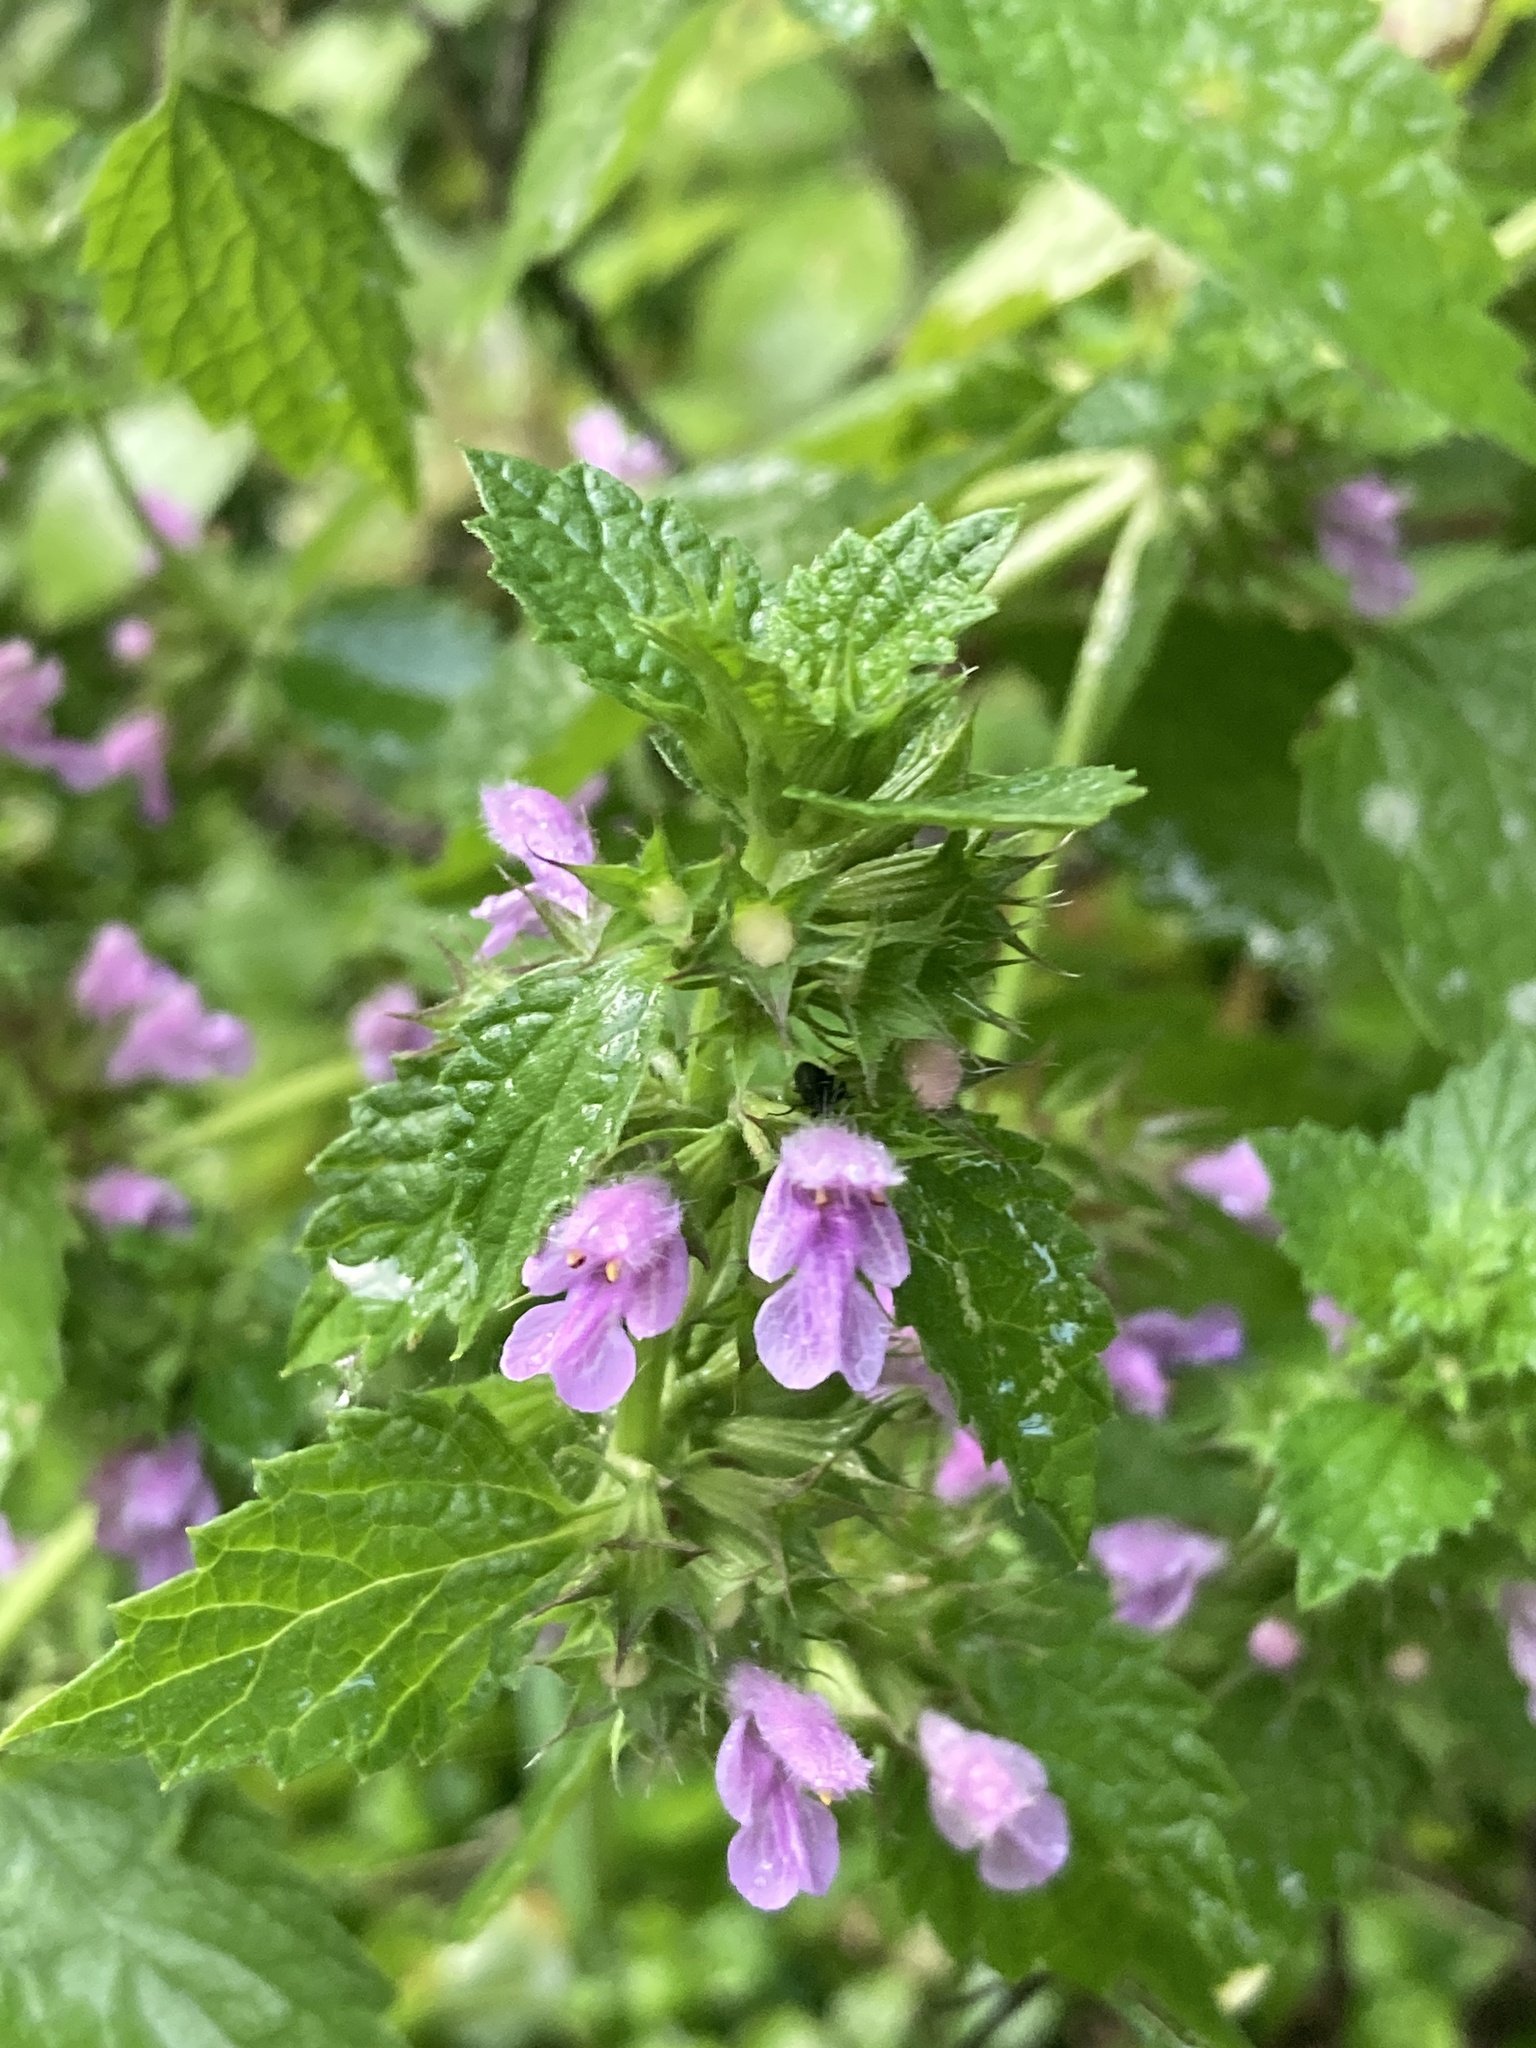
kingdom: Plantae
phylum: Tracheophyta
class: Magnoliopsida
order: Lamiales
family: Lamiaceae
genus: Ballota
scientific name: Ballota nigra
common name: Black horehound
